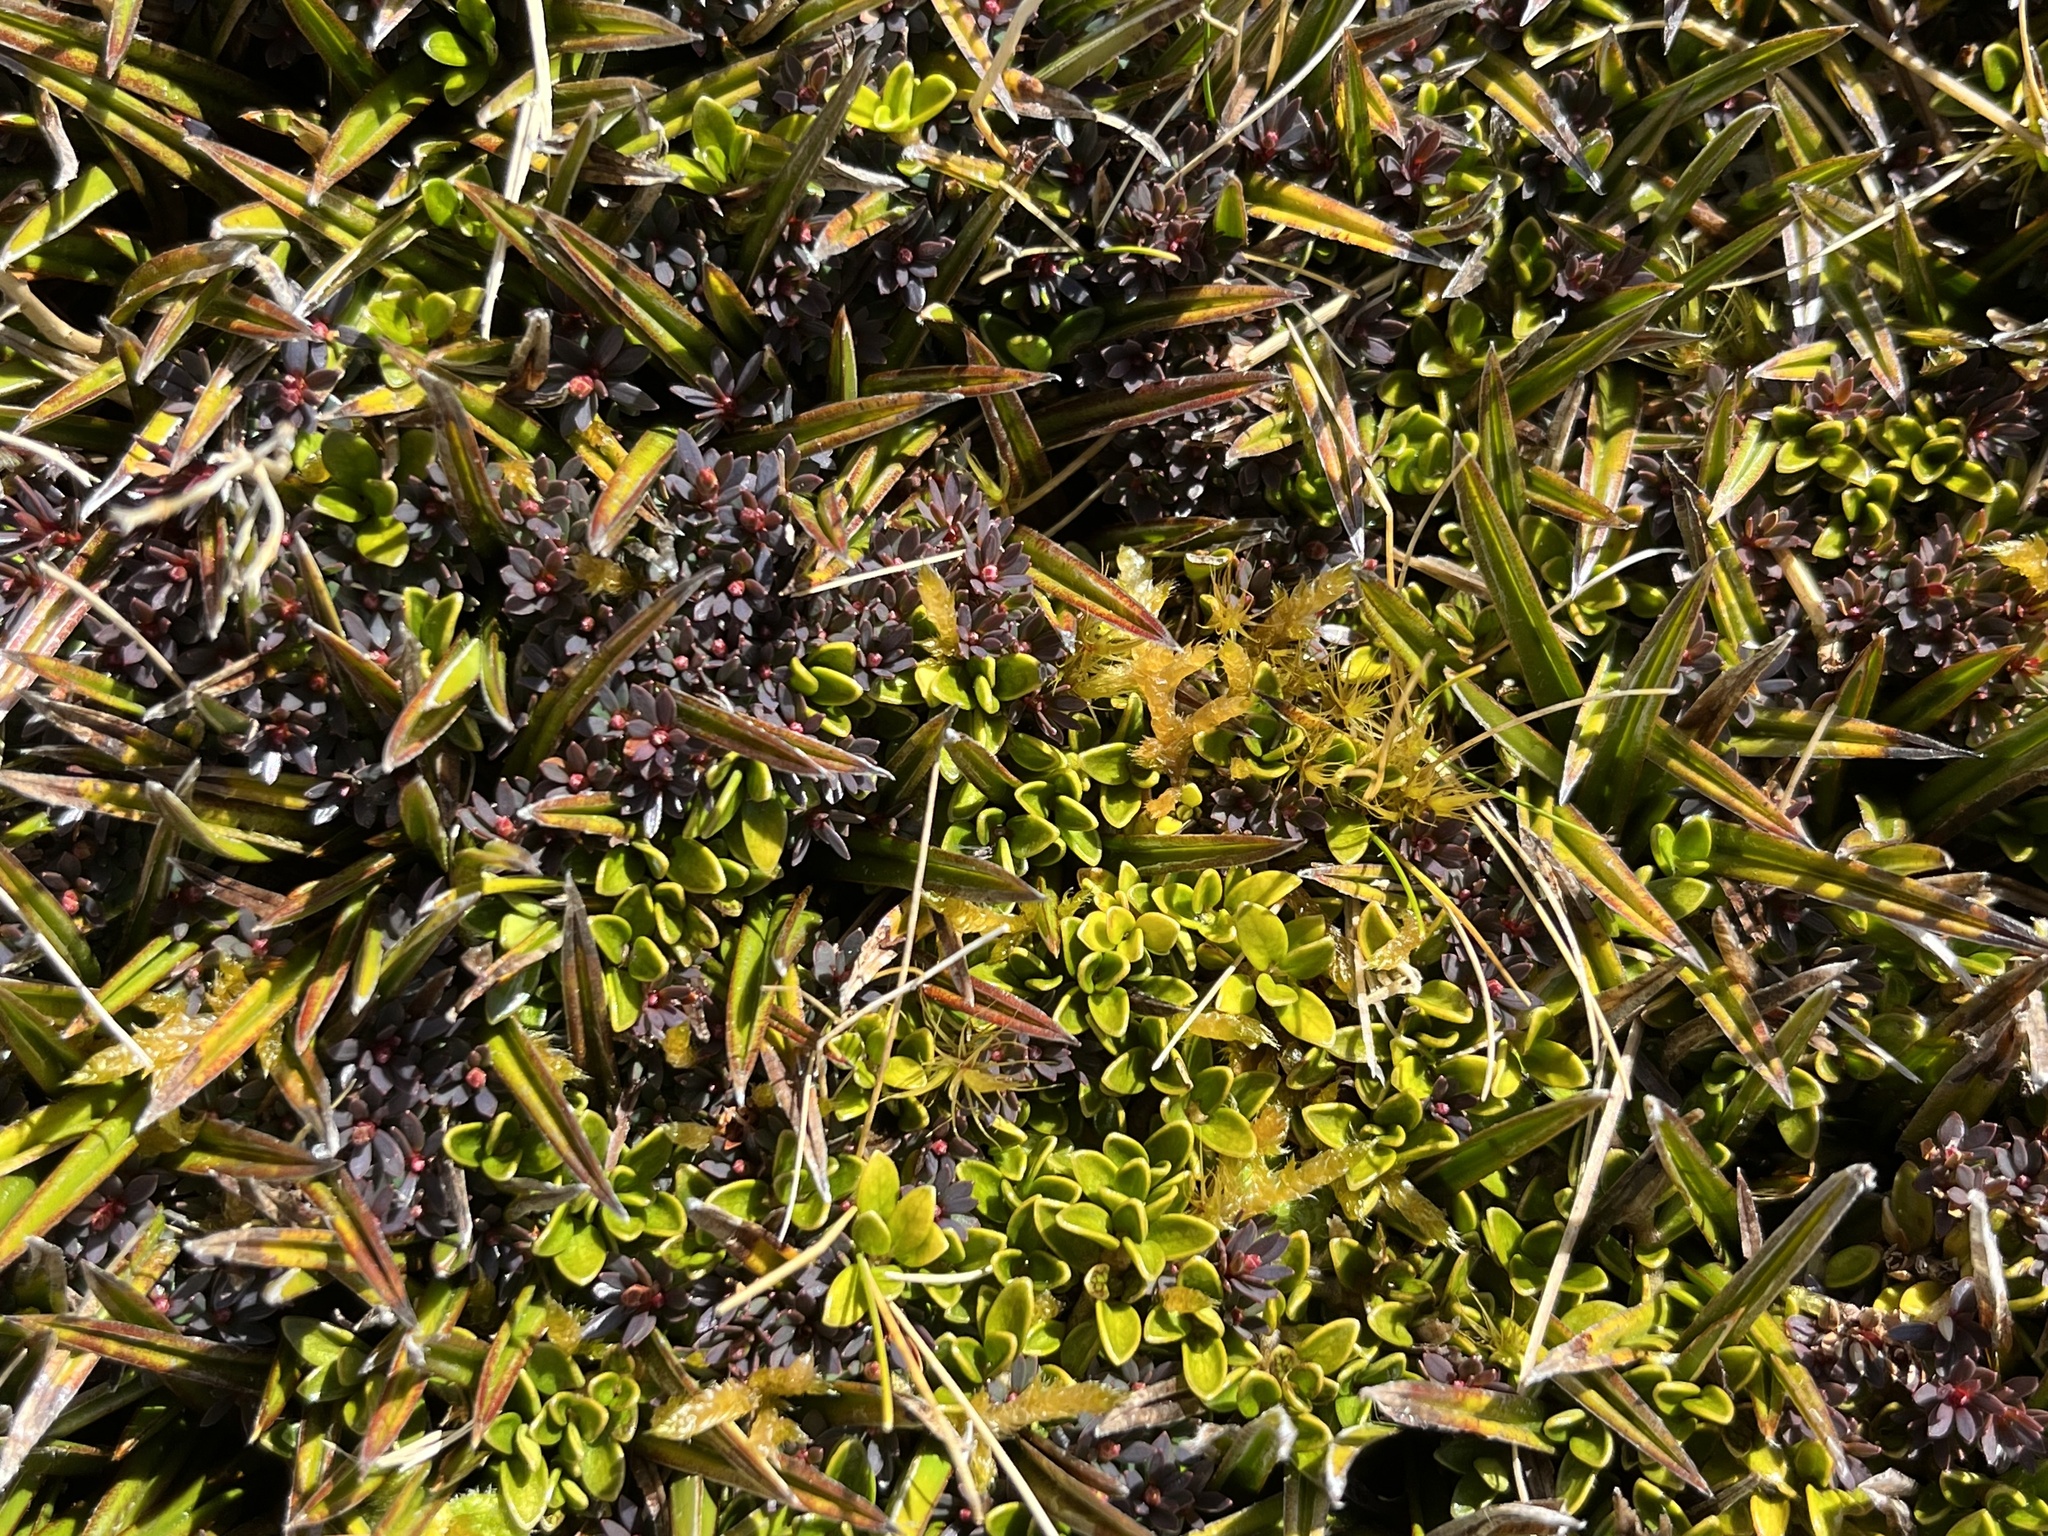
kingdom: Plantae
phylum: Tracheophyta
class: Liliopsida
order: Asparagales
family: Asteliaceae
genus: Astelia
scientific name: Astelia linearis
